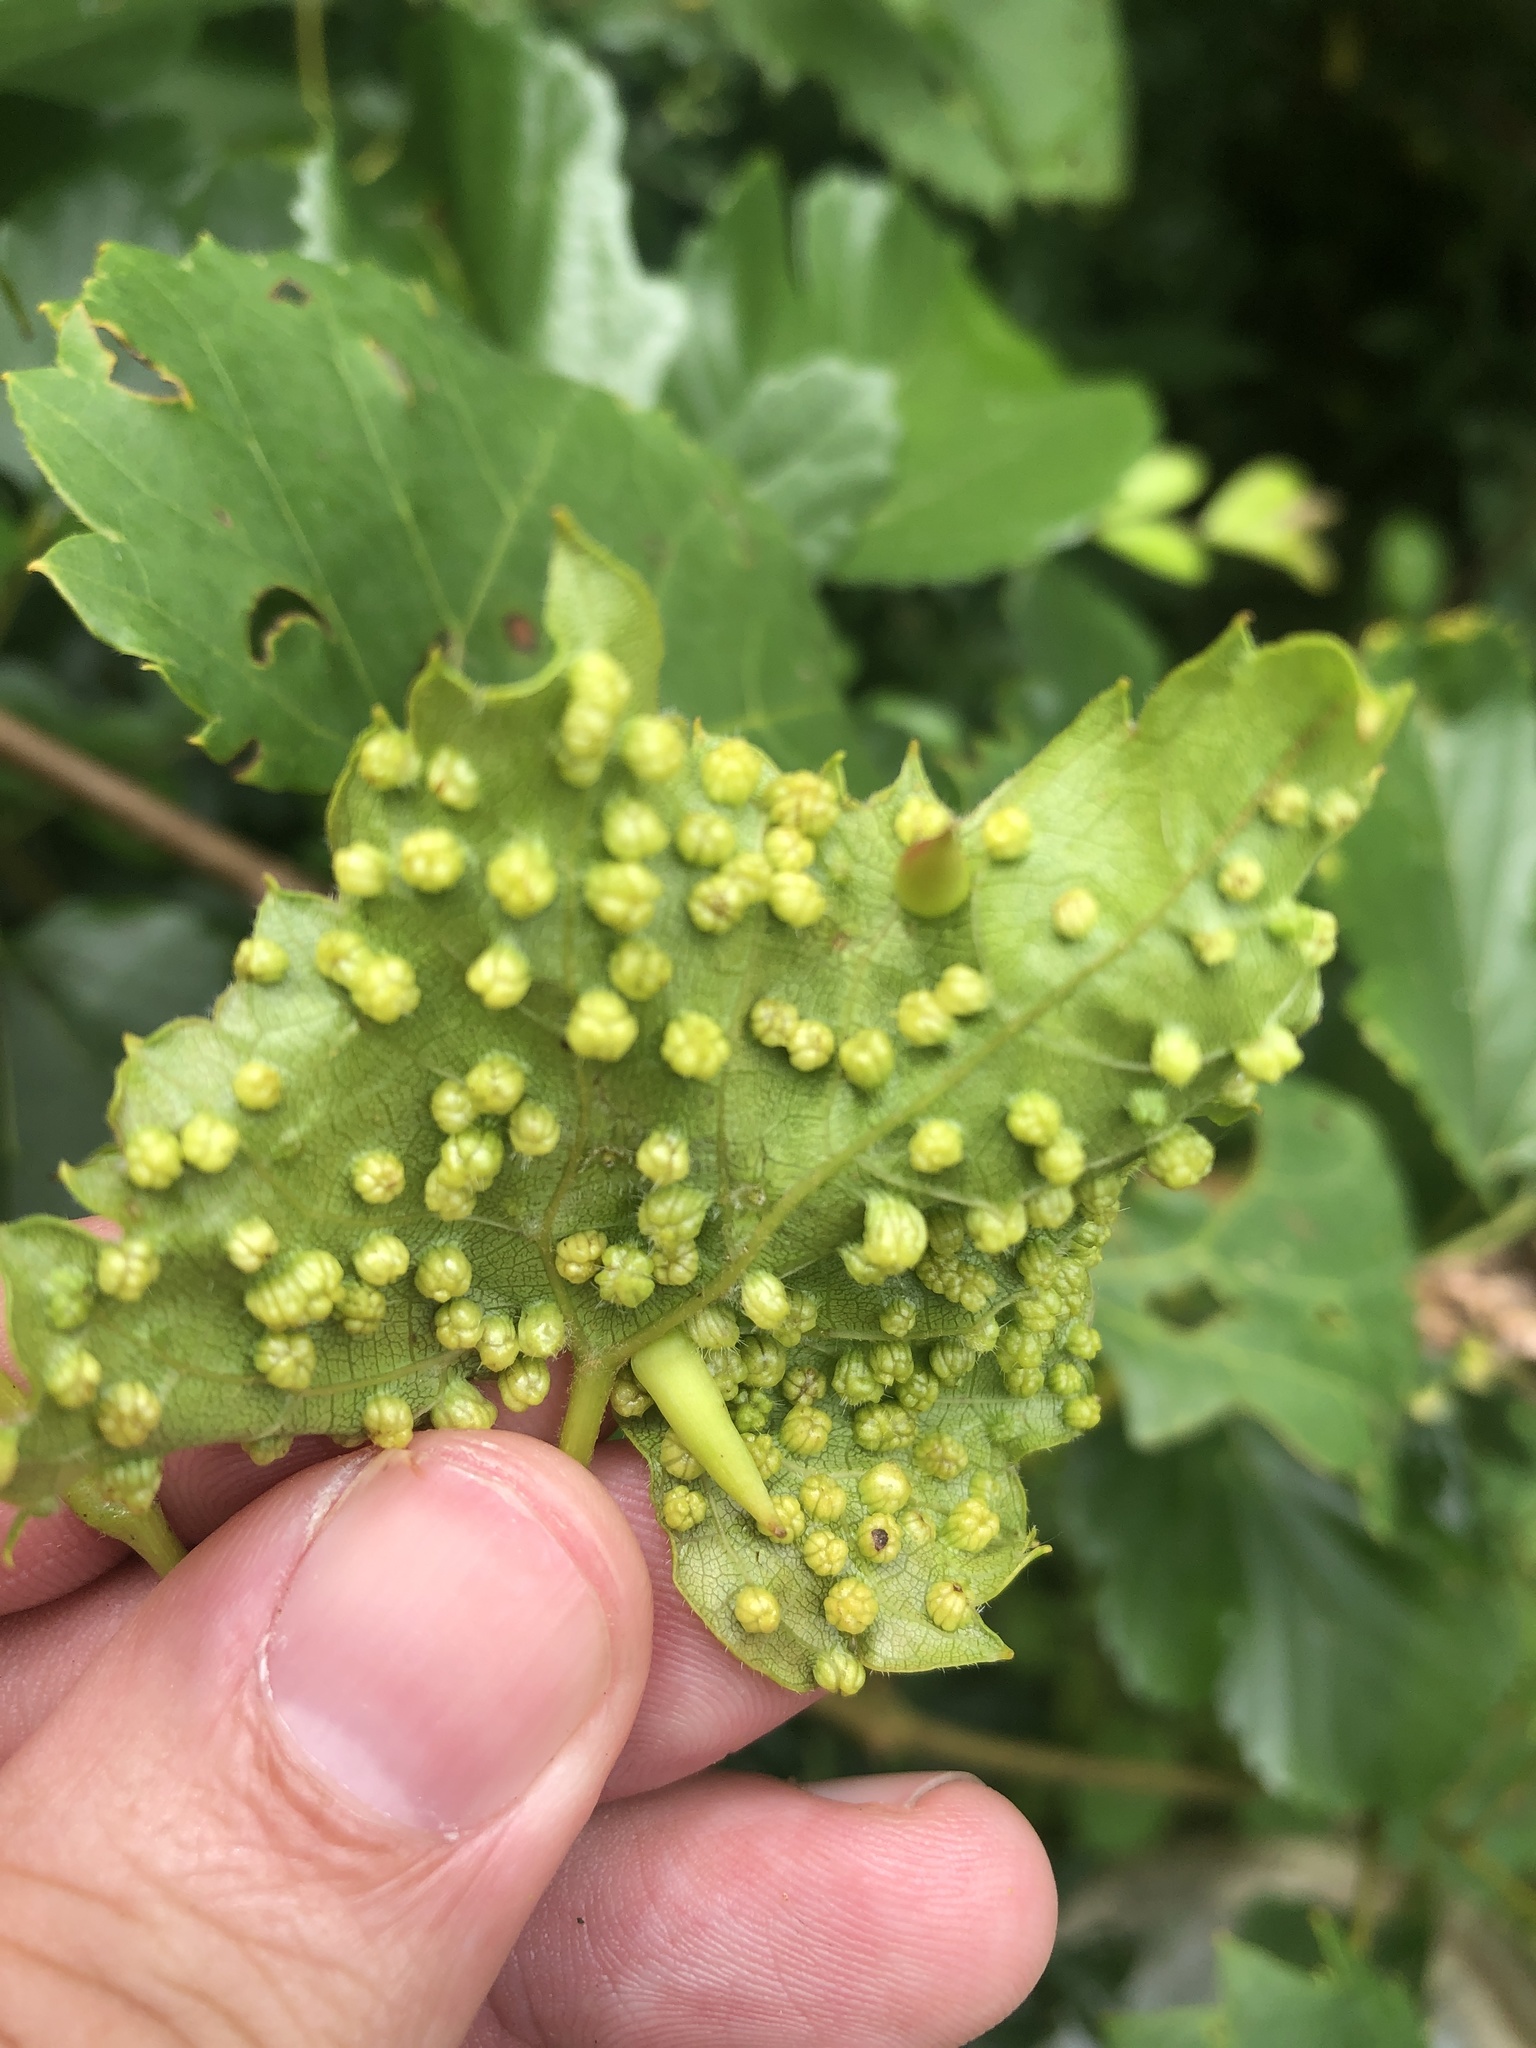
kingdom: Animalia
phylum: Arthropoda
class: Insecta
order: Hemiptera
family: Phylloxeridae
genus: Daktulosphaira
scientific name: Daktulosphaira vitifoliae
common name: Grape phylloxera
